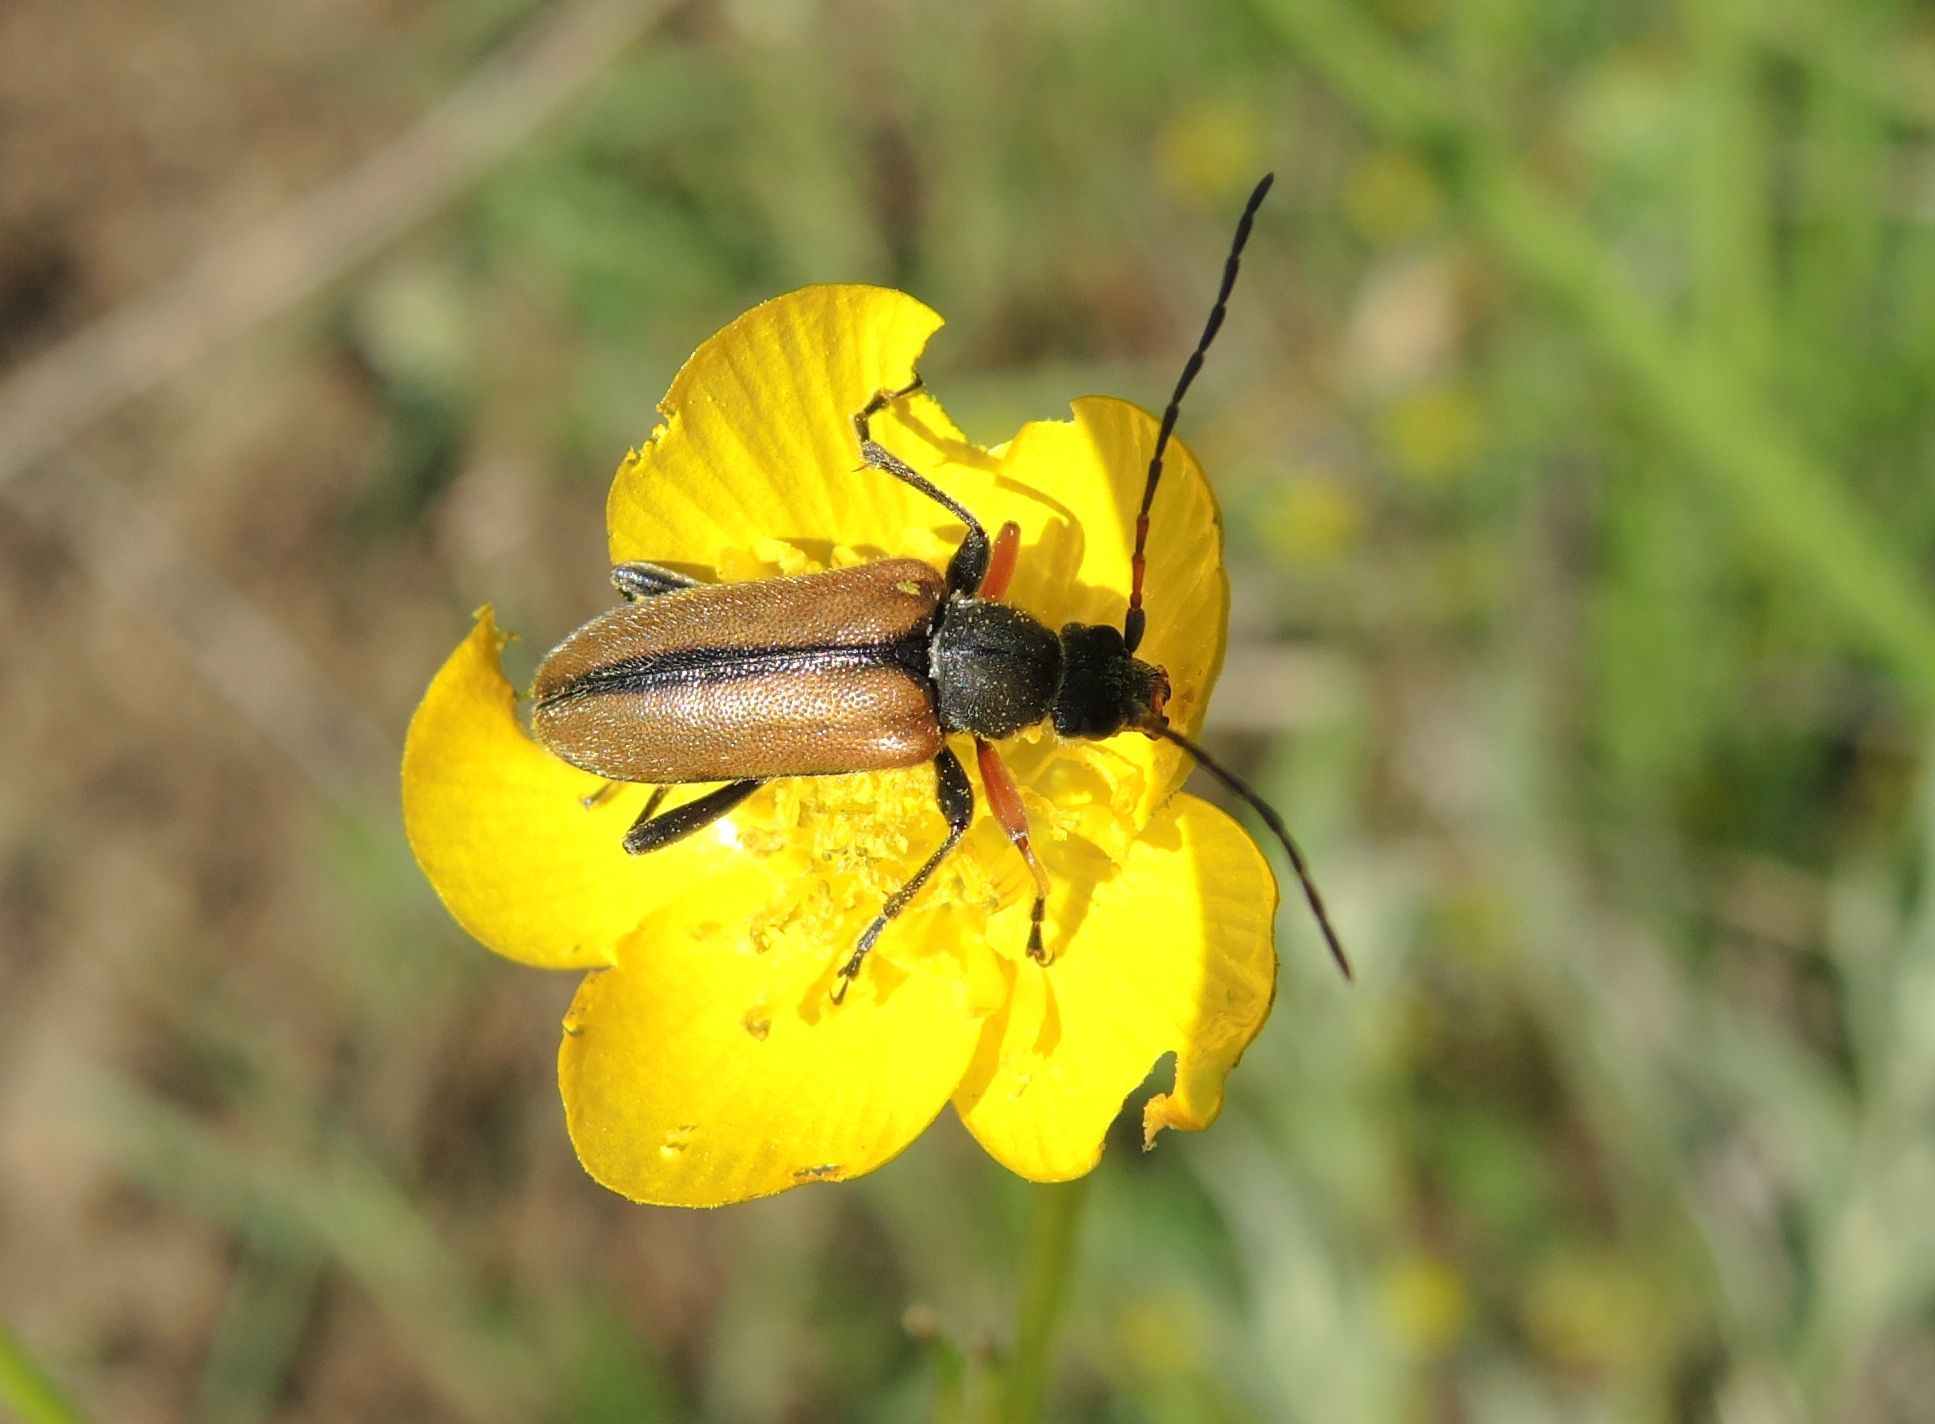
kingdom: Animalia
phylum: Arthropoda
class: Insecta
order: Coleoptera
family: Cerambycidae
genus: Cortodera
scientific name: Cortodera flavimana
